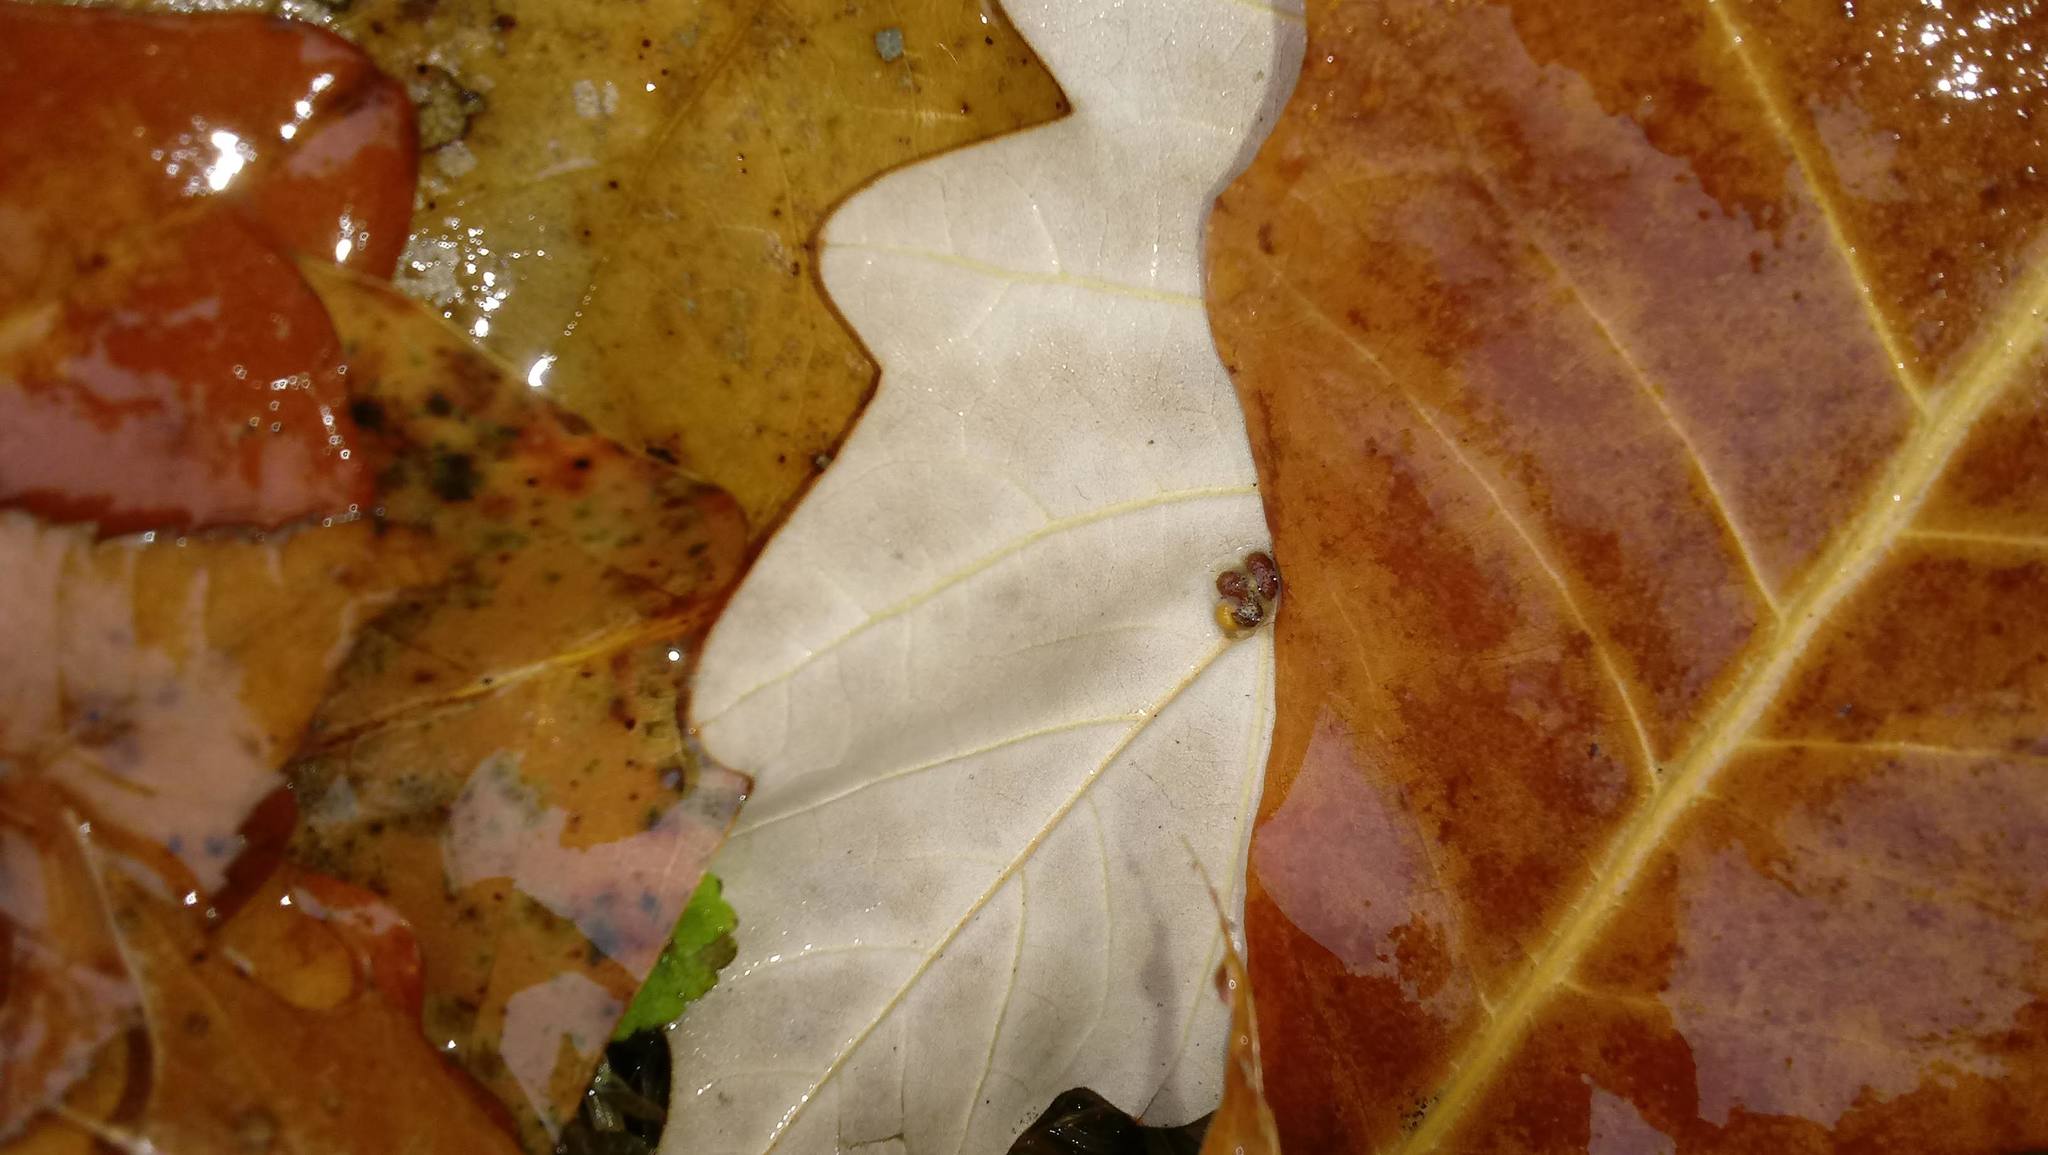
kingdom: Animalia
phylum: Arthropoda
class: Insecta
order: Hymenoptera
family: Cynipidae
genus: Andricus
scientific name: Andricus Druon ignotum
